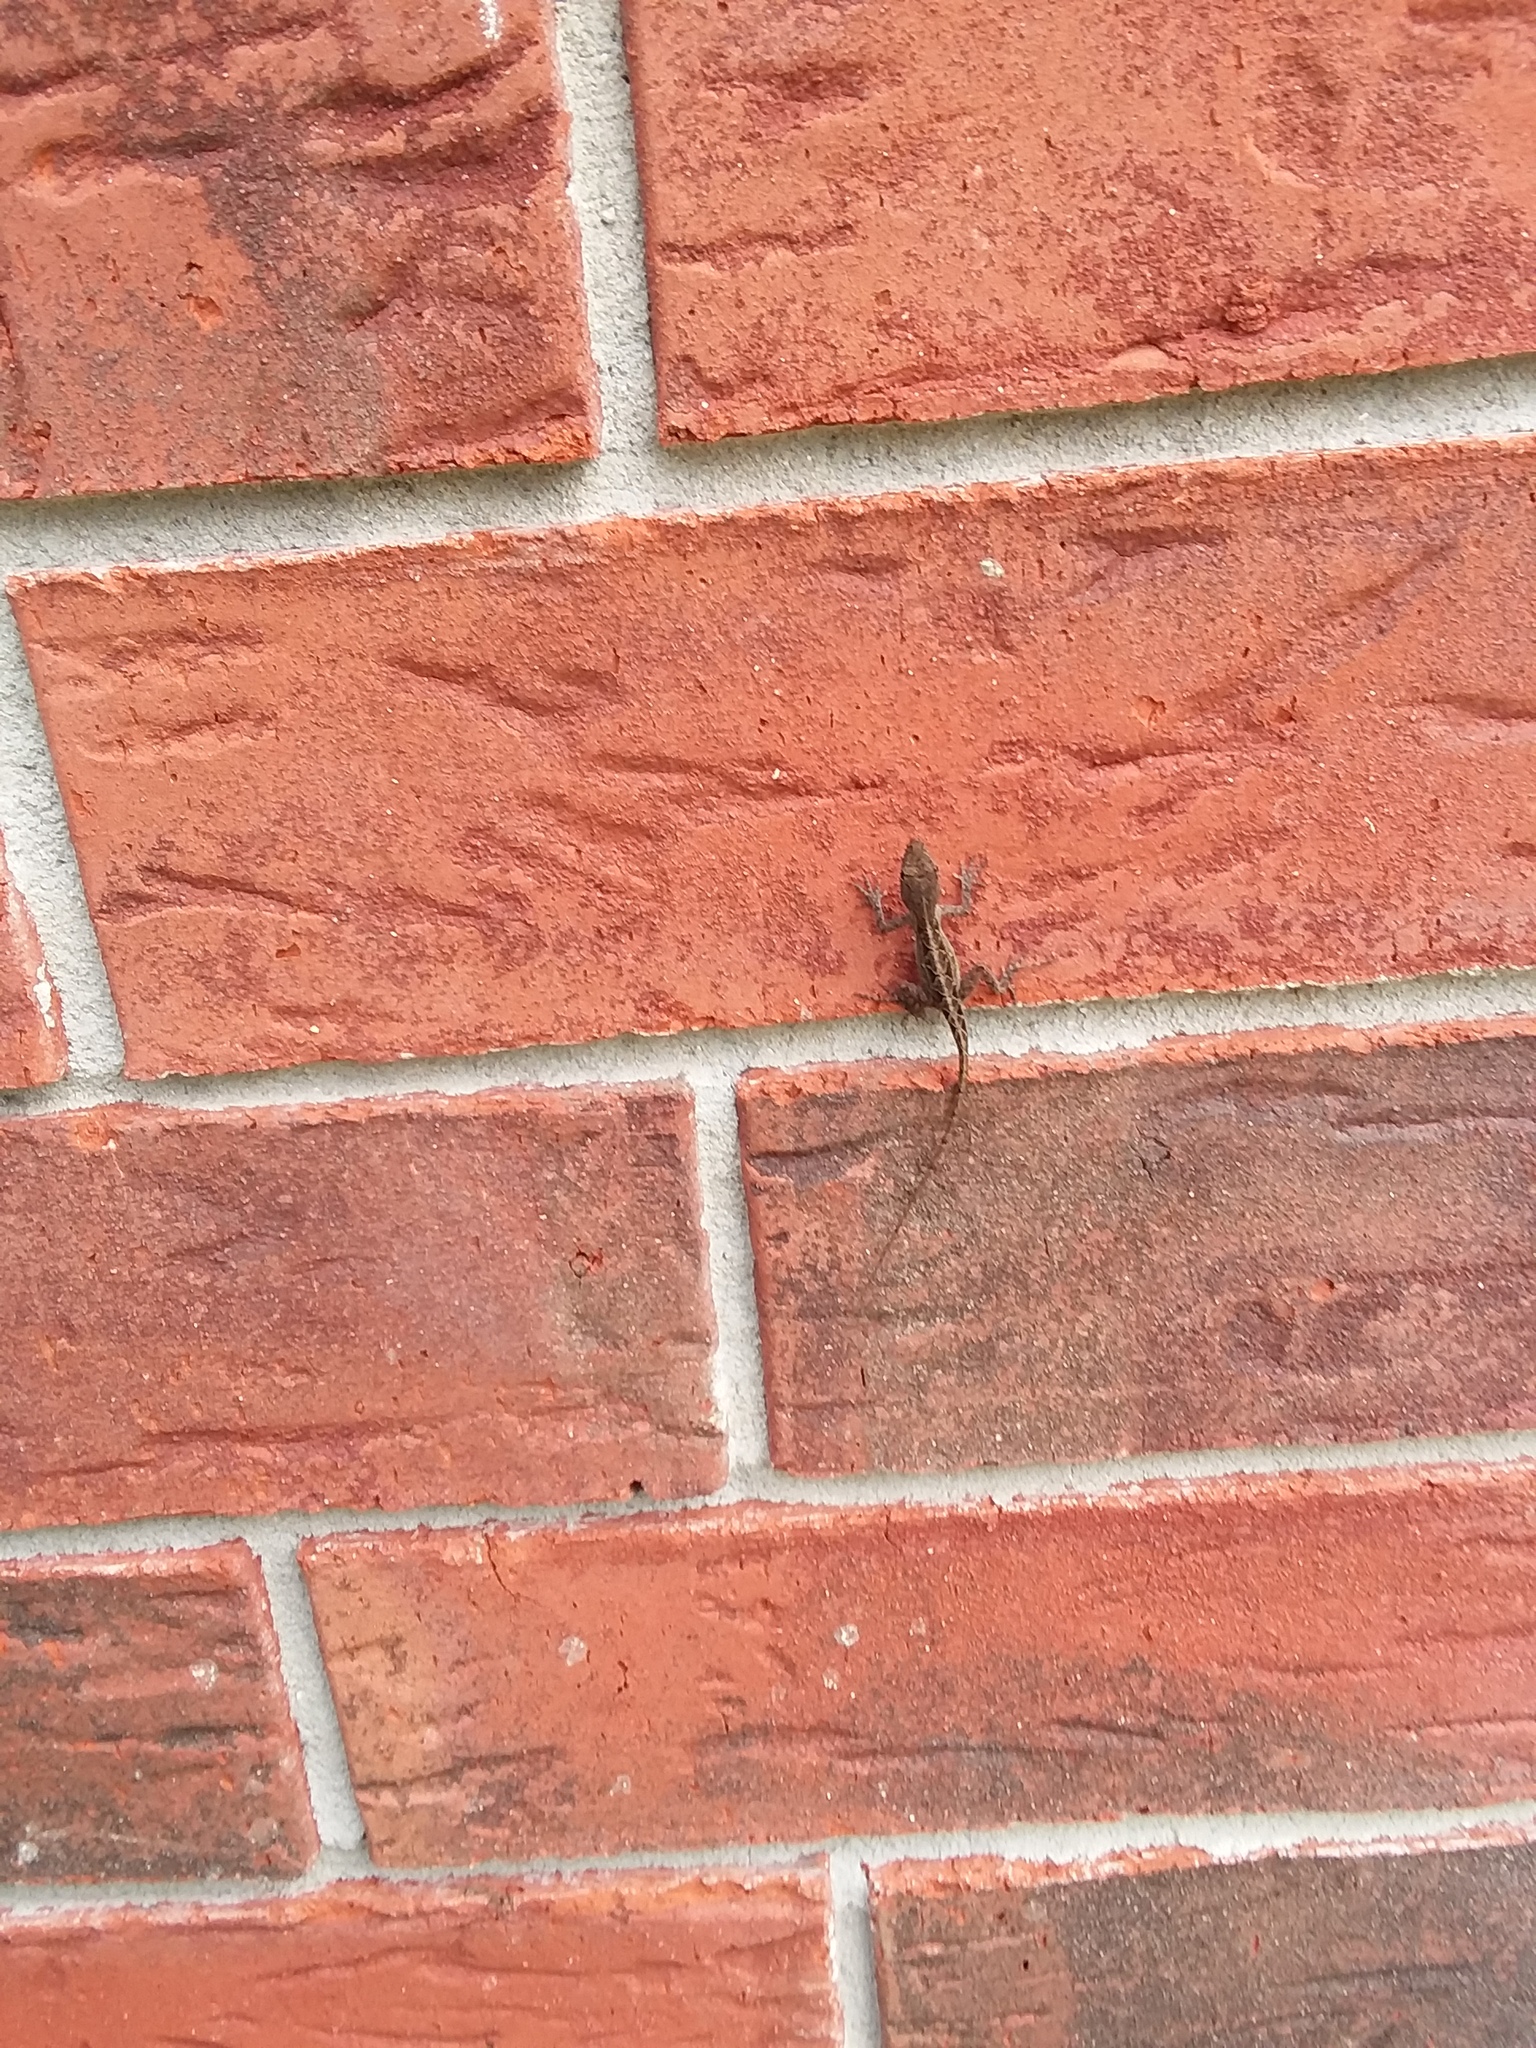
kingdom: Animalia
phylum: Chordata
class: Squamata
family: Dactyloidae
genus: Anolis
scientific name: Anolis sagrei
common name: Brown anole
